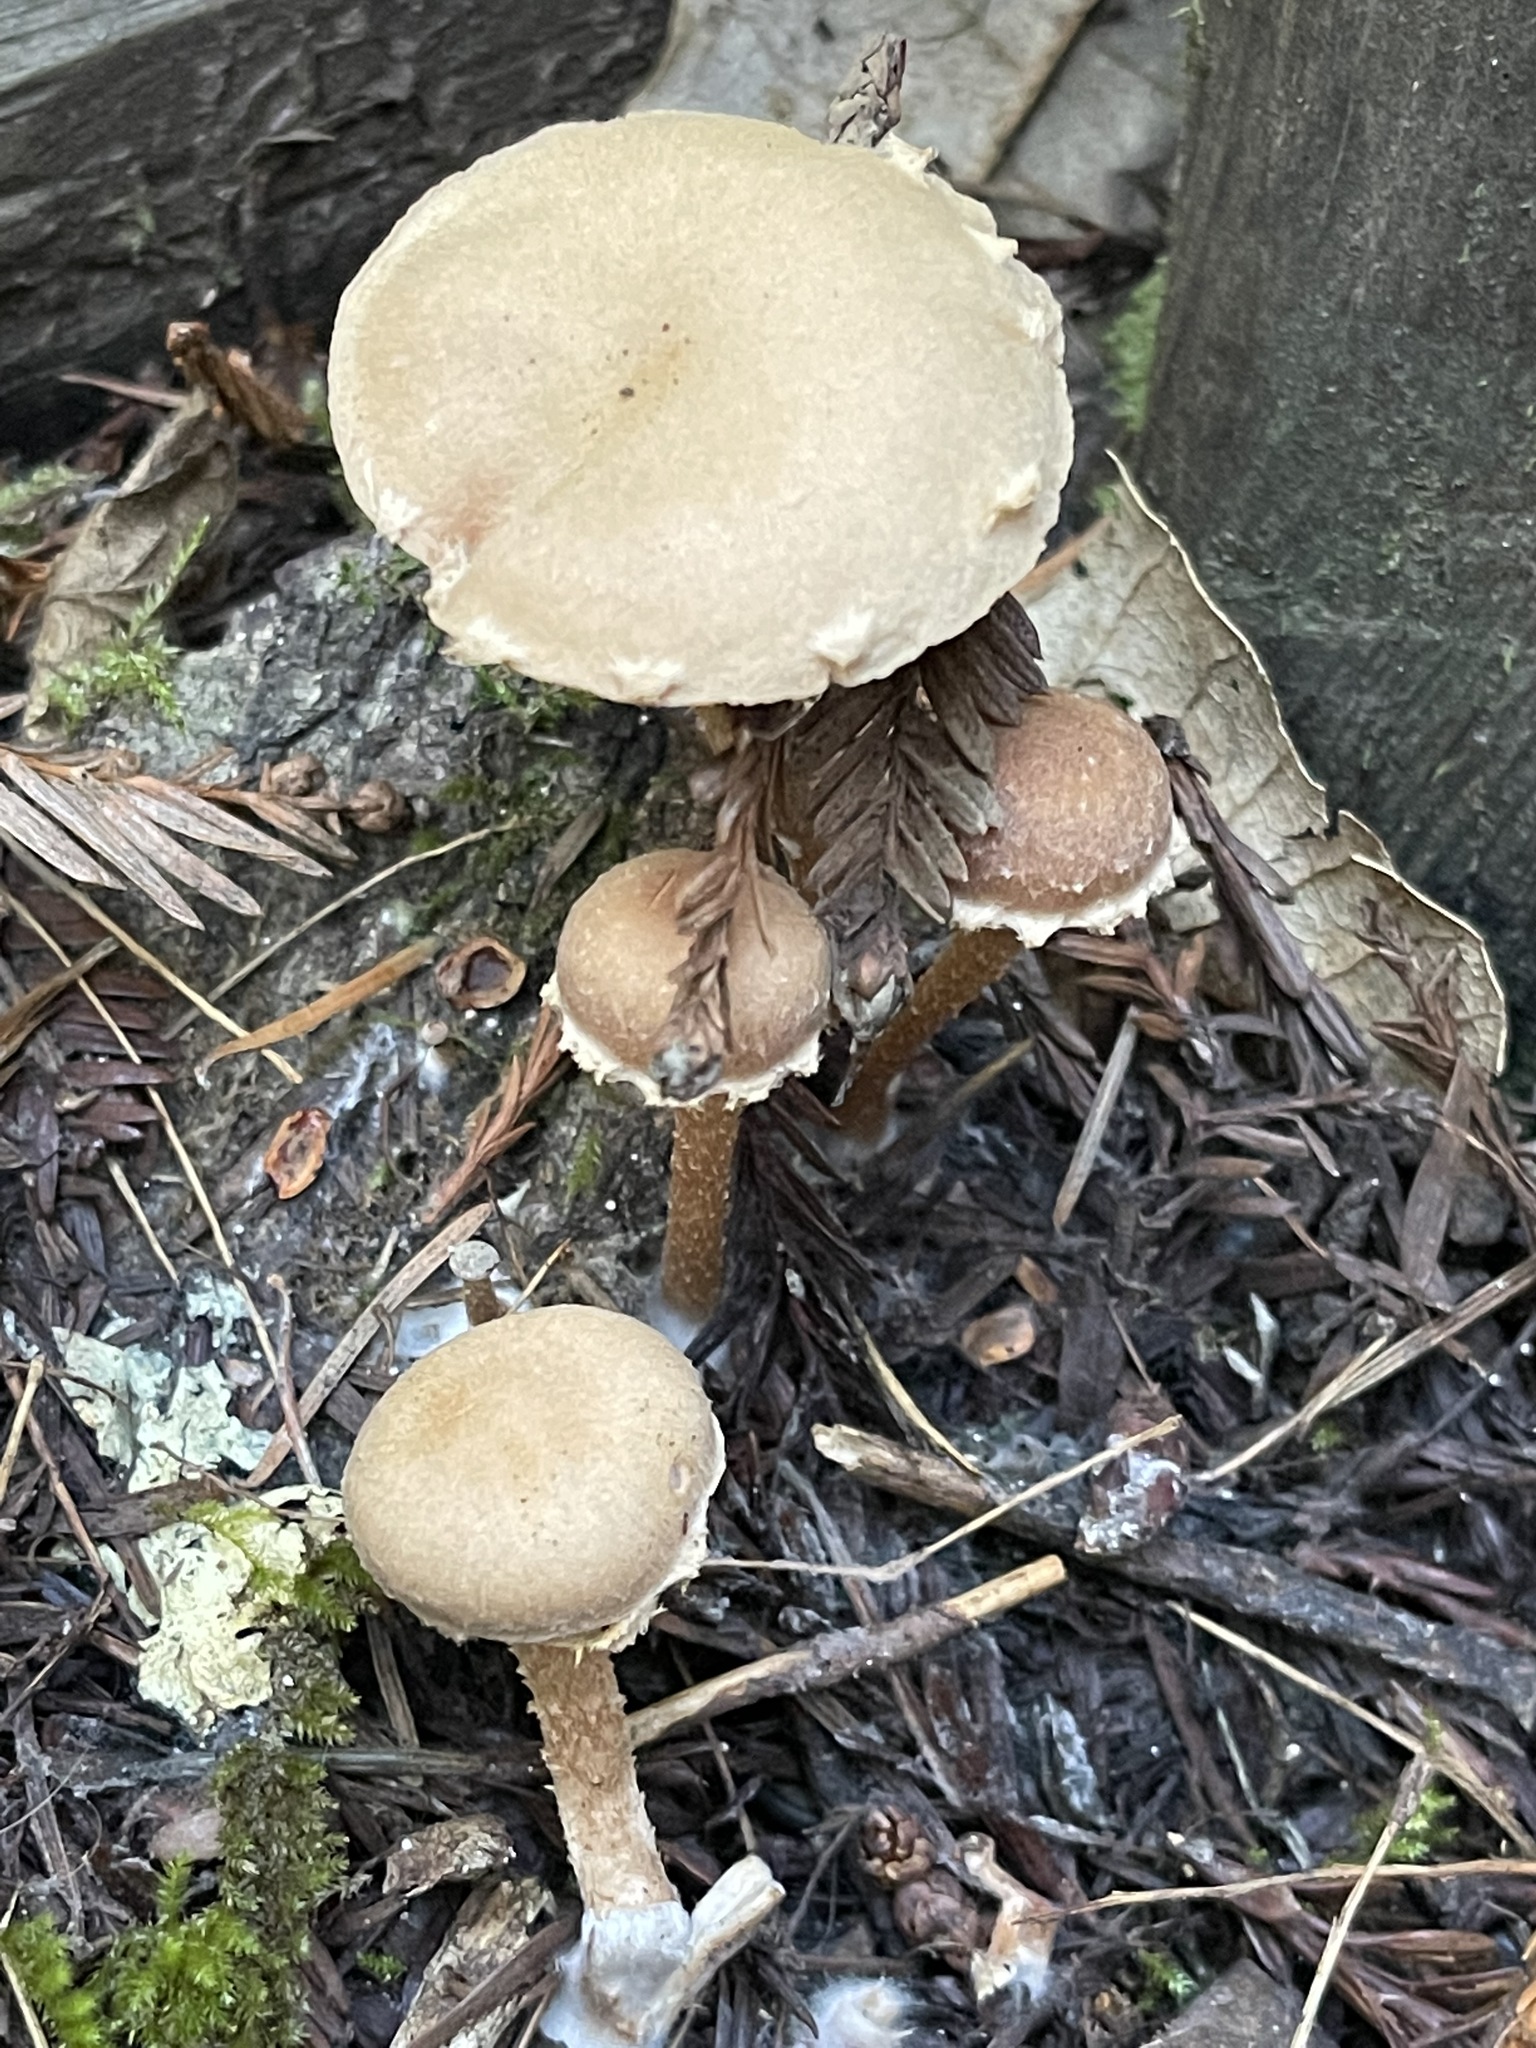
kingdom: Fungi
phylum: Basidiomycota
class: Agaricomycetes
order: Agaricales
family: Tubariaceae
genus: Tubaria
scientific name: Tubaria furfuracea
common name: Scurfy twiglet
